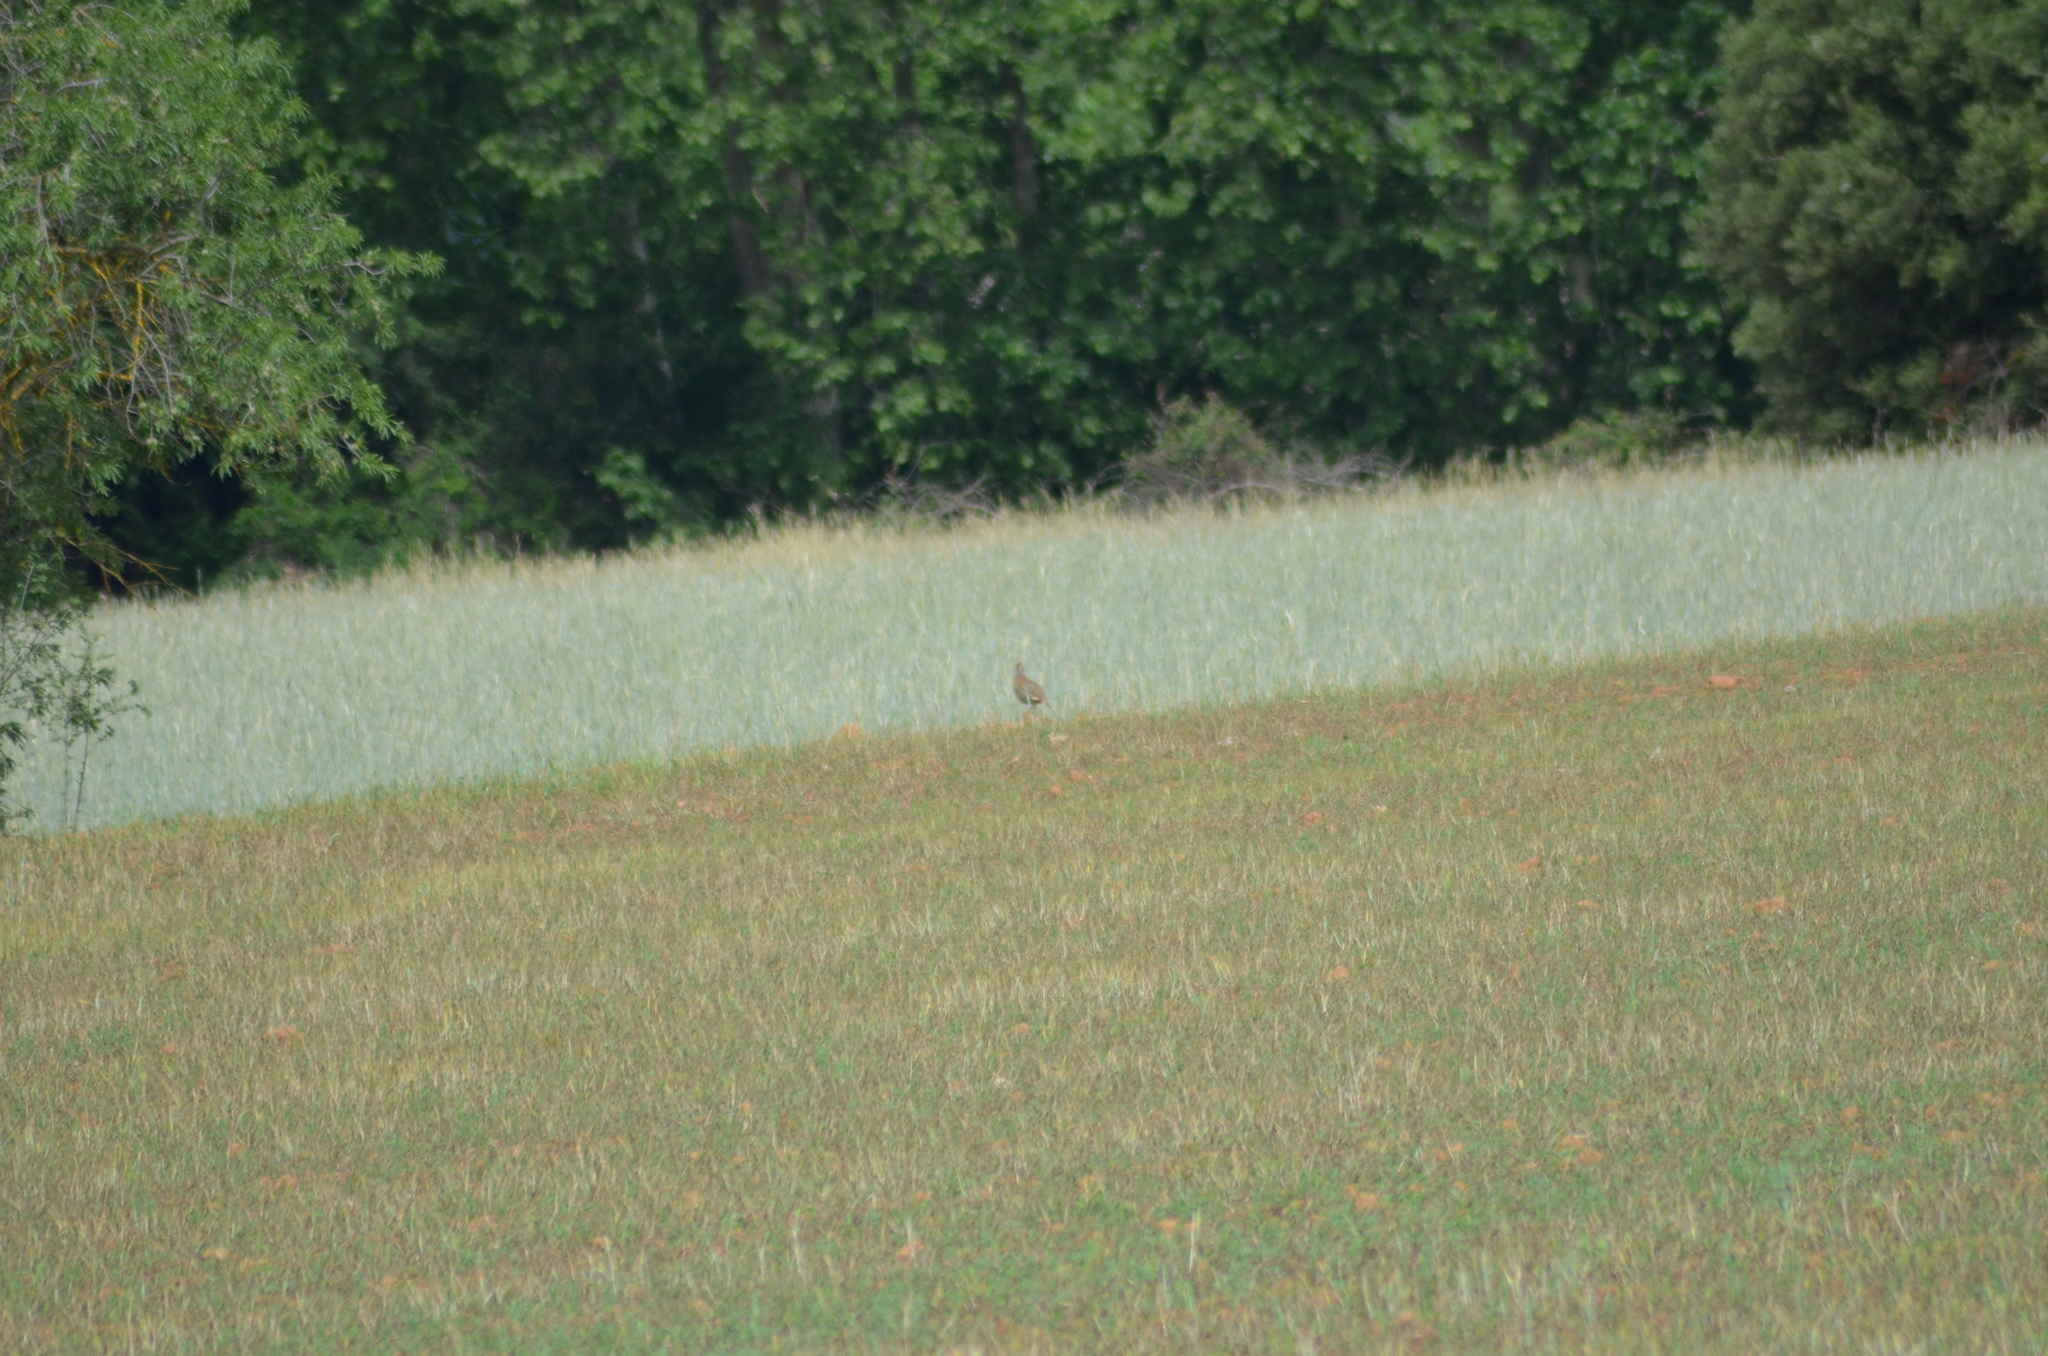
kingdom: Animalia
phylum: Chordata
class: Aves
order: Galliformes
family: Phasianidae
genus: Alectoris
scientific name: Alectoris rufa
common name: Red-legged partridge
